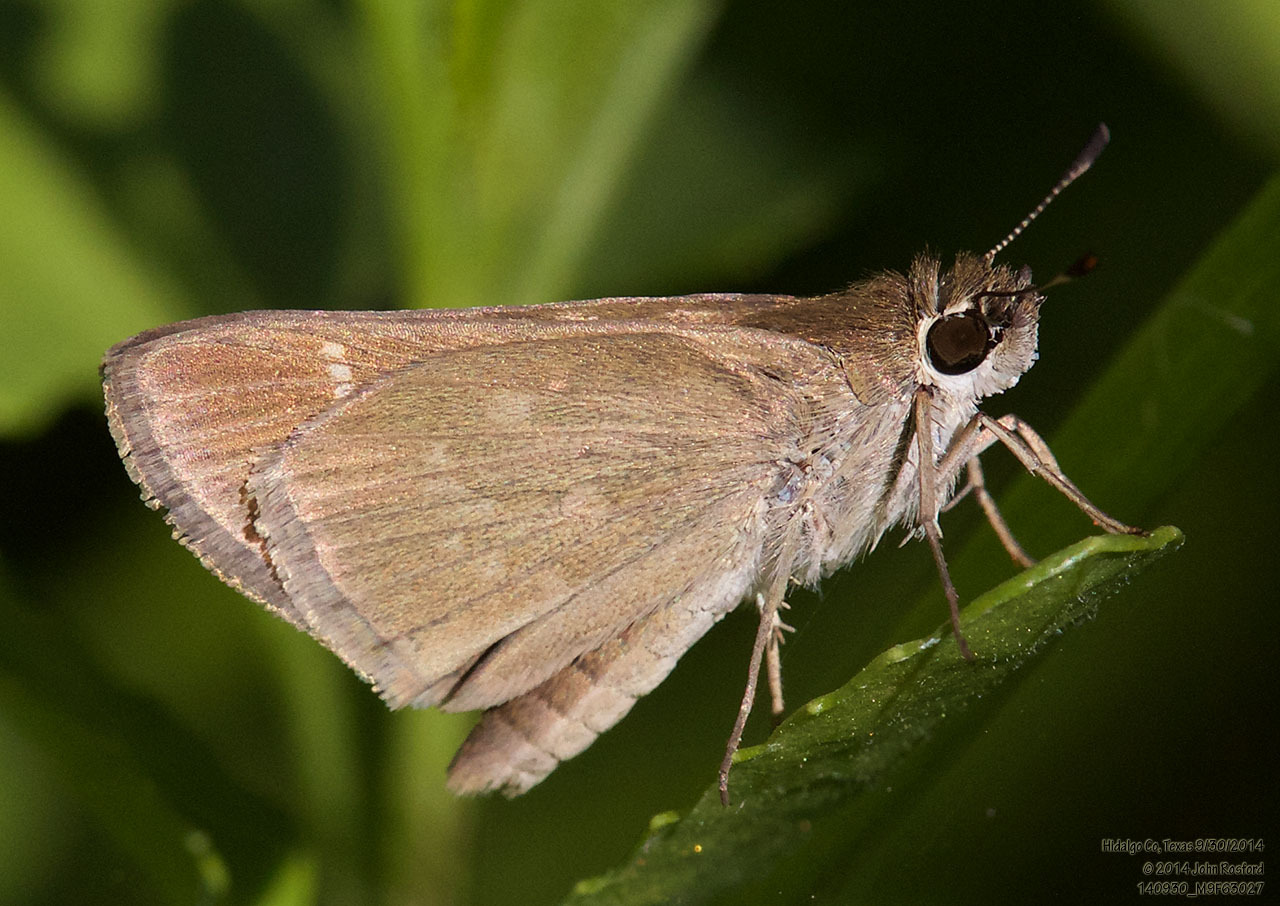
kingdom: Animalia
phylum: Arthropoda
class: Insecta
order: Lepidoptera
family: Hesperiidae
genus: Lerodea
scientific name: Lerodea eufala
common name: Eufala skipper
